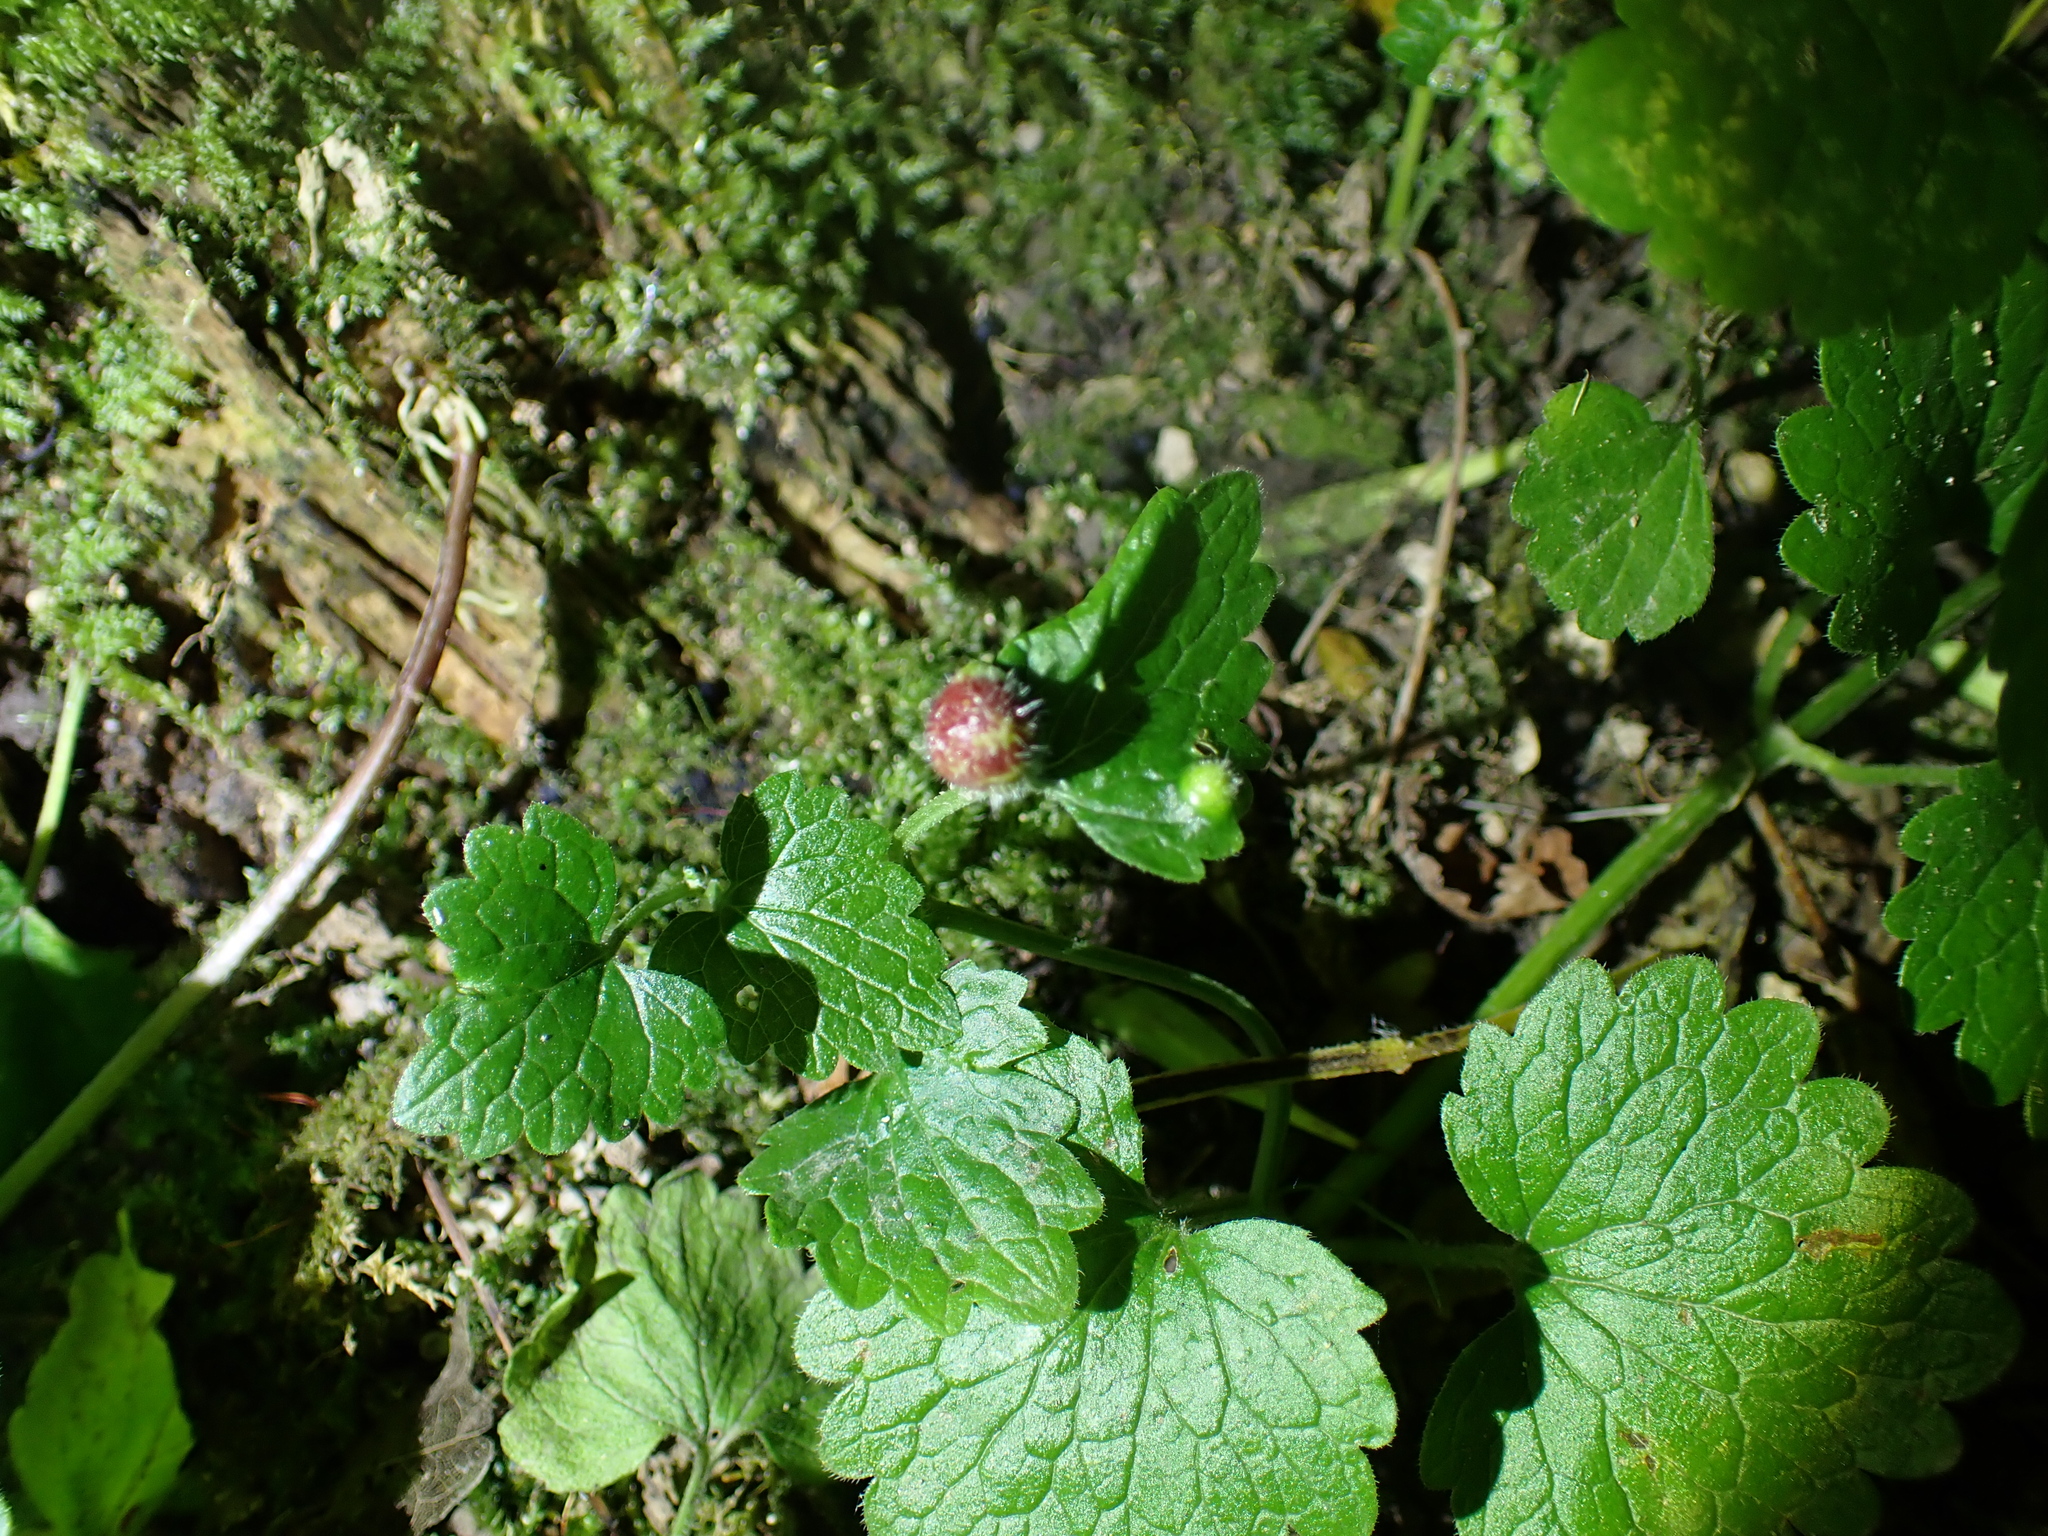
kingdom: Animalia
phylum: Arthropoda
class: Insecta
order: Hymenoptera
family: Cynipidae
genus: Liposthenes
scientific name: Liposthenes glechomae
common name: Gall wasp
